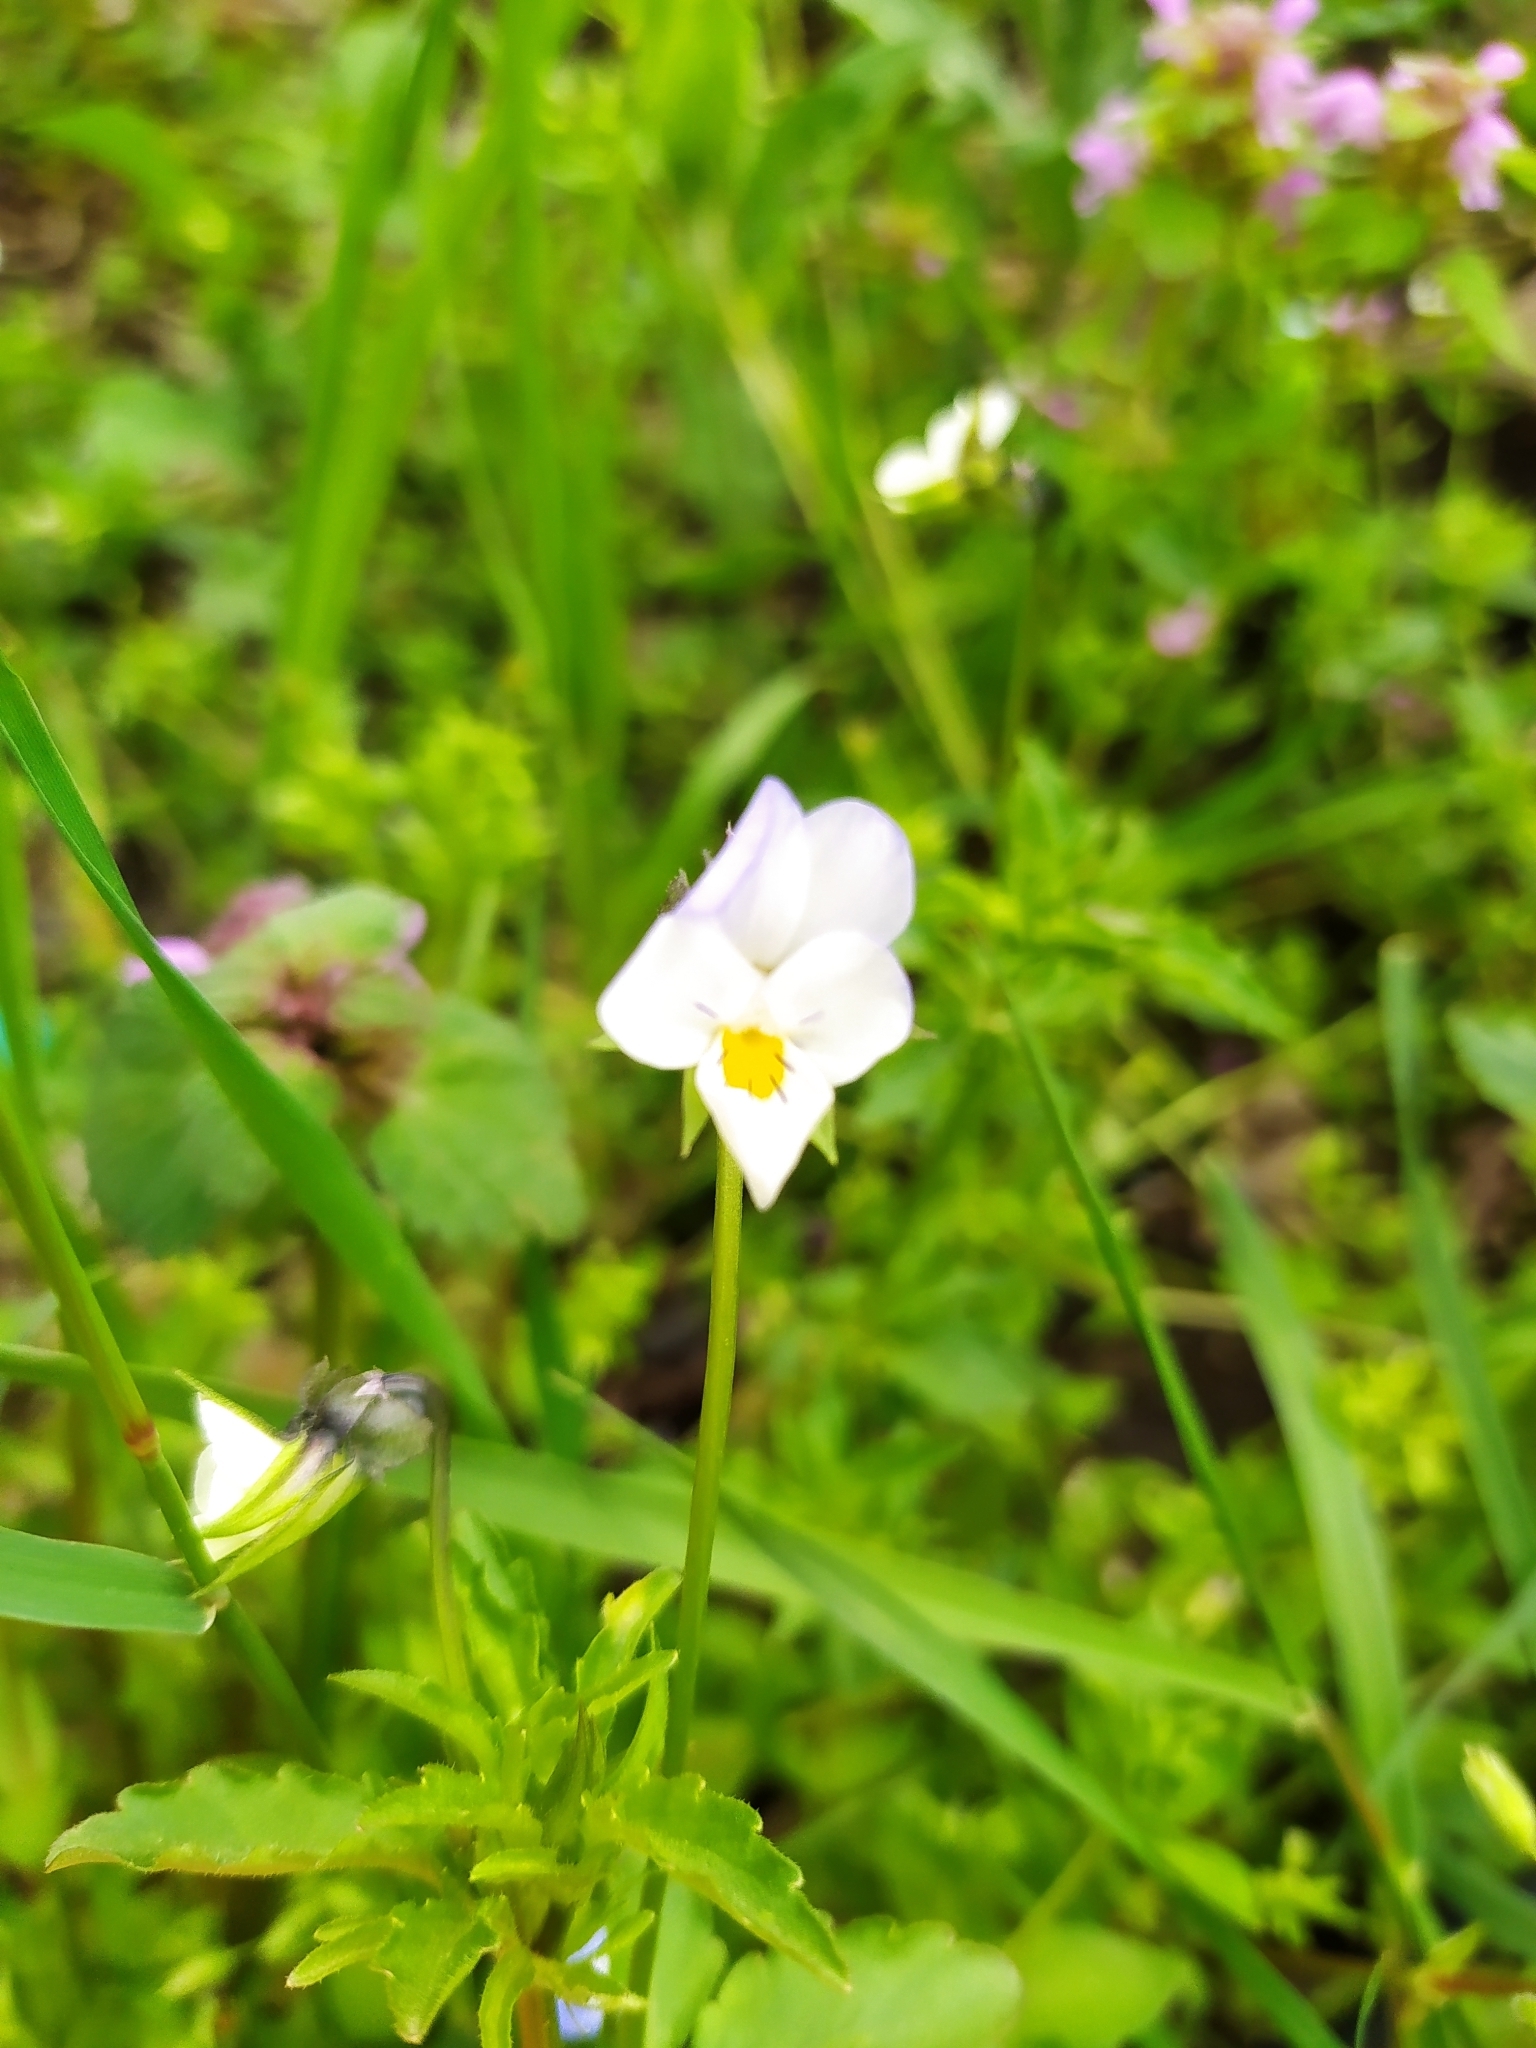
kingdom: Plantae
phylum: Tracheophyta
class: Magnoliopsida
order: Malpighiales
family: Violaceae
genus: Viola
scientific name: Viola arvensis
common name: Field pansy
